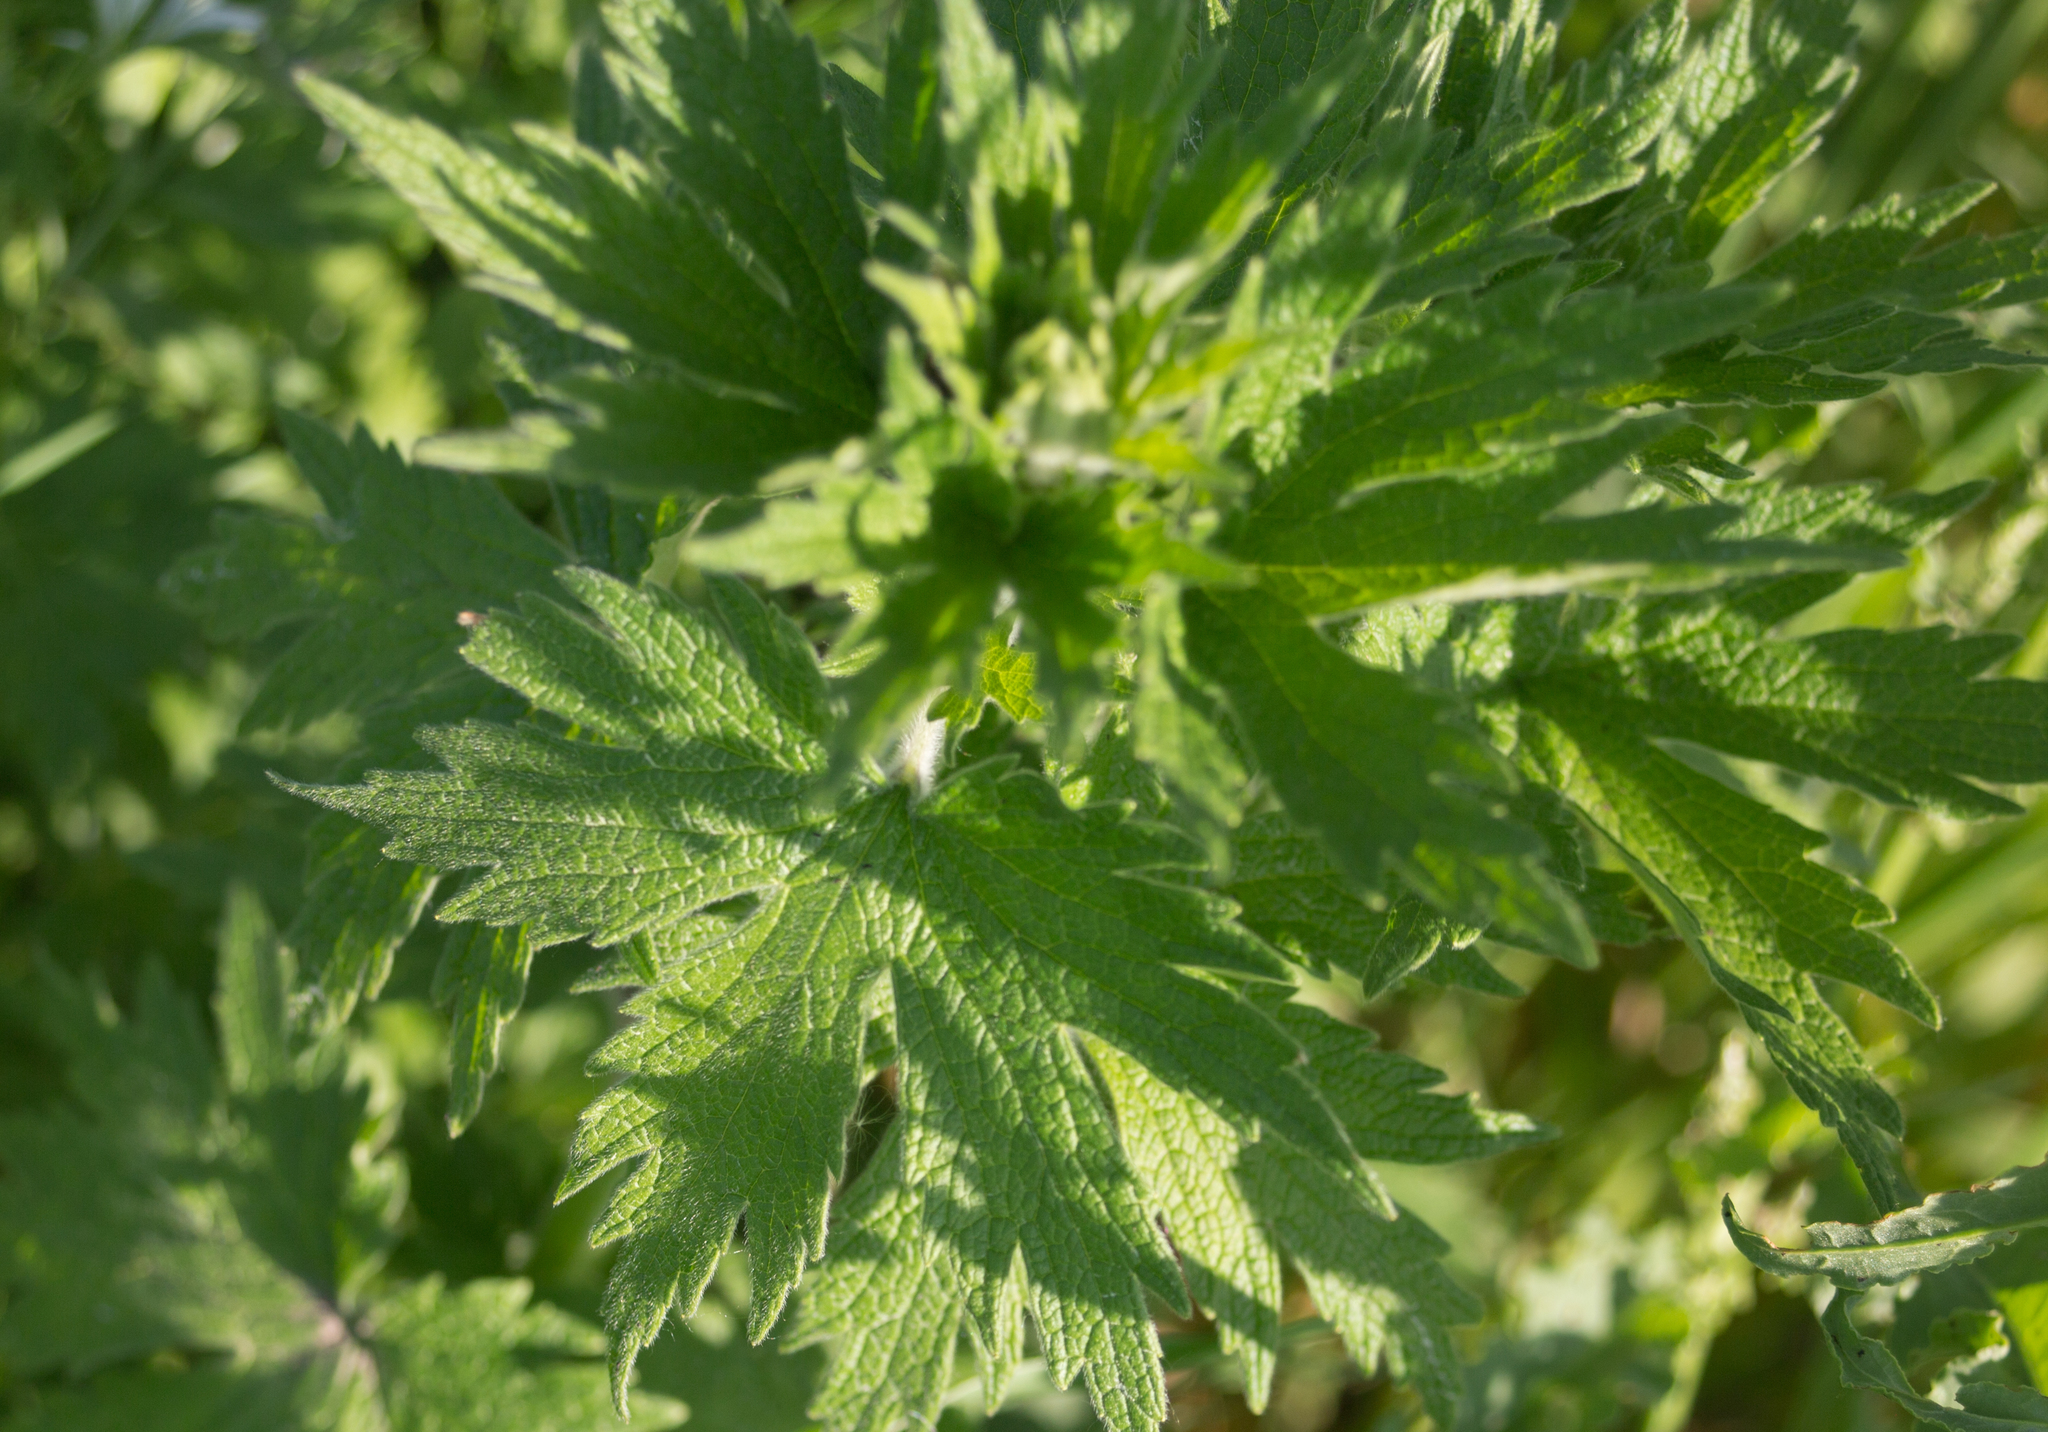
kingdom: Plantae
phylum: Tracheophyta
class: Magnoliopsida
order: Lamiales
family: Lamiaceae
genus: Leonurus
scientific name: Leonurus quinquelobatus
